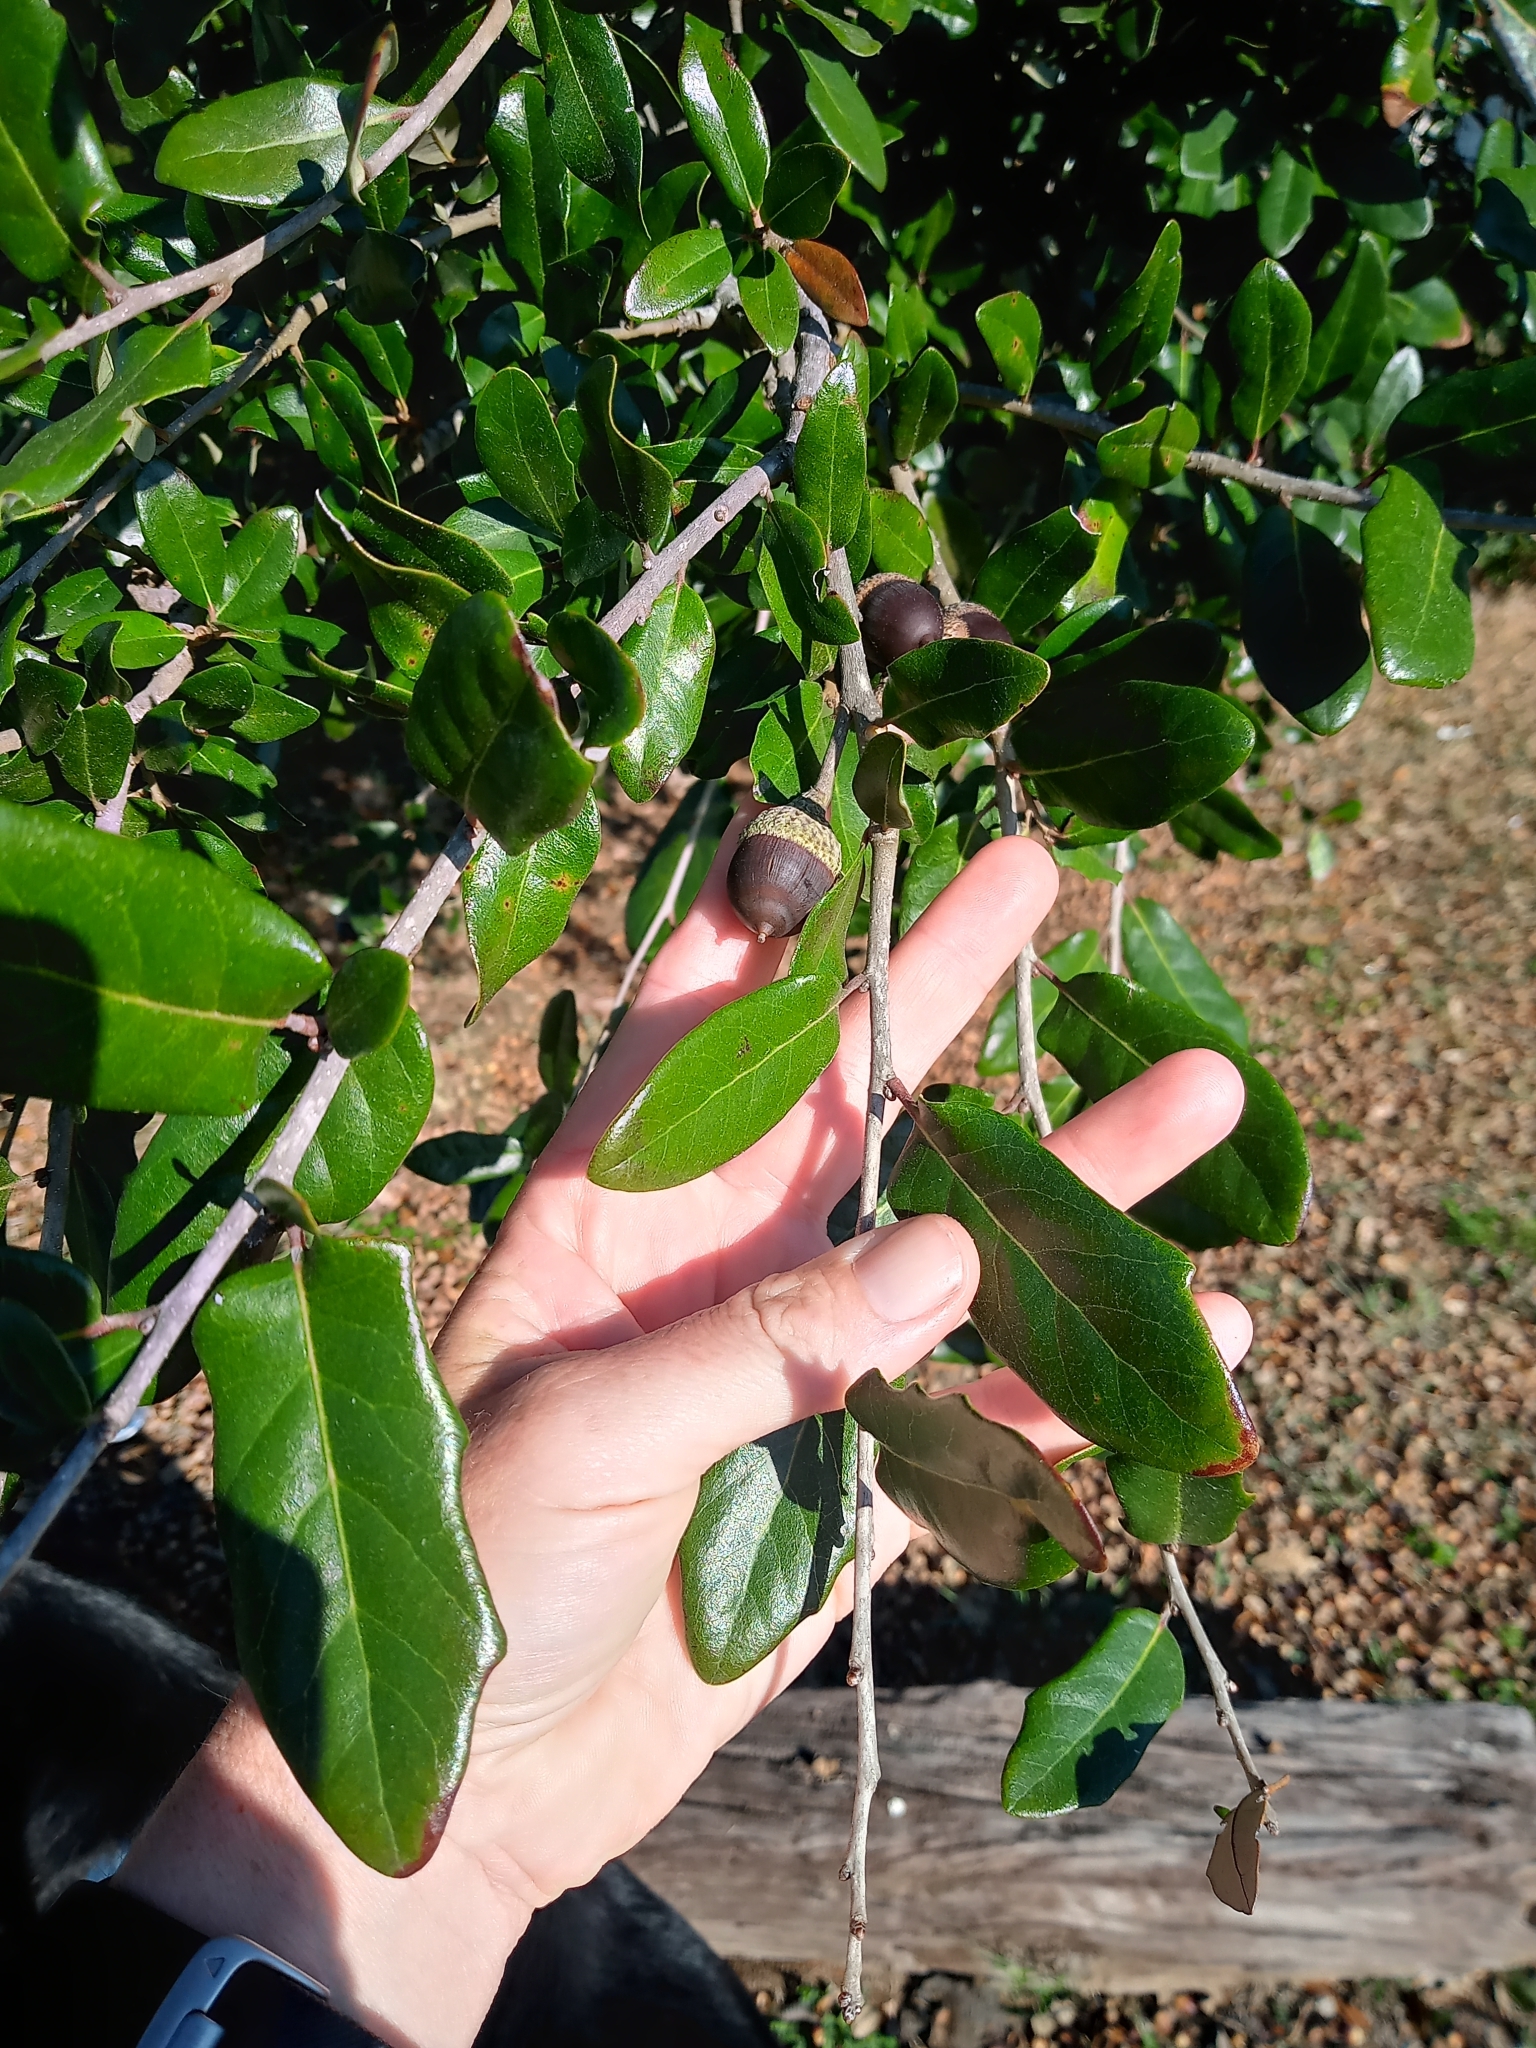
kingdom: Plantae
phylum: Tracheophyta
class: Magnoliopsida
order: Fagales
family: Fagaceae
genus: Quercus
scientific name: Quercus virginiana
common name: Southern live oak
